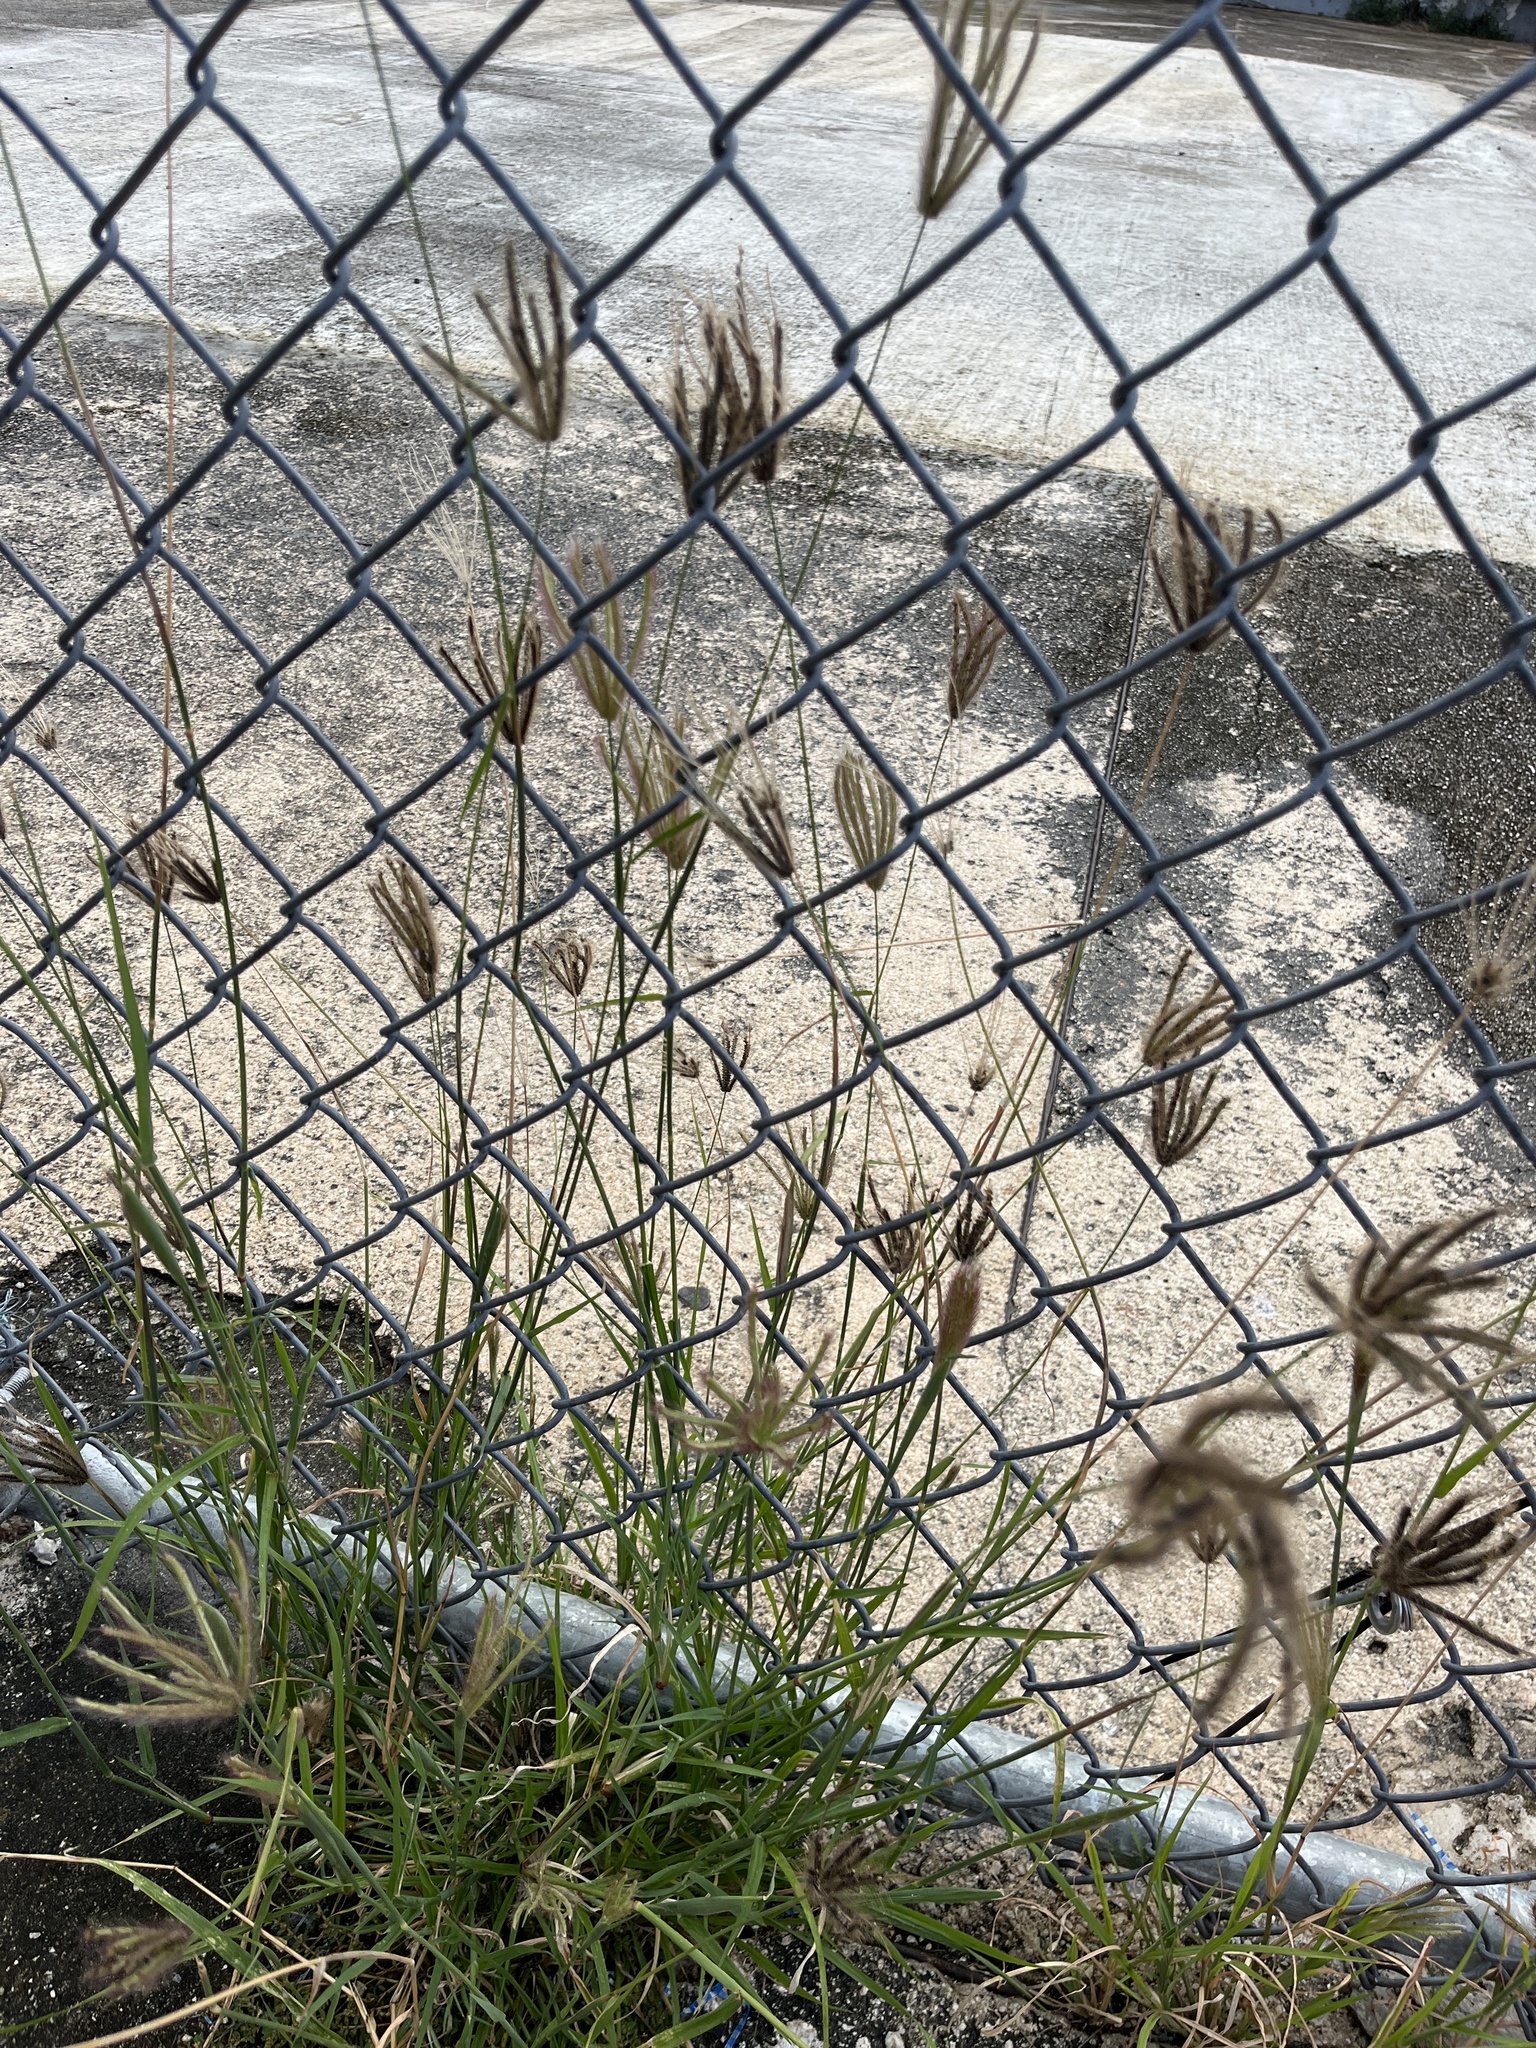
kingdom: Plantae
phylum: Tracheophyta
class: Liliopsida
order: Poales
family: Poaceae
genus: Chloris
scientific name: Chloris barbata
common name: Swollen fingergrass
